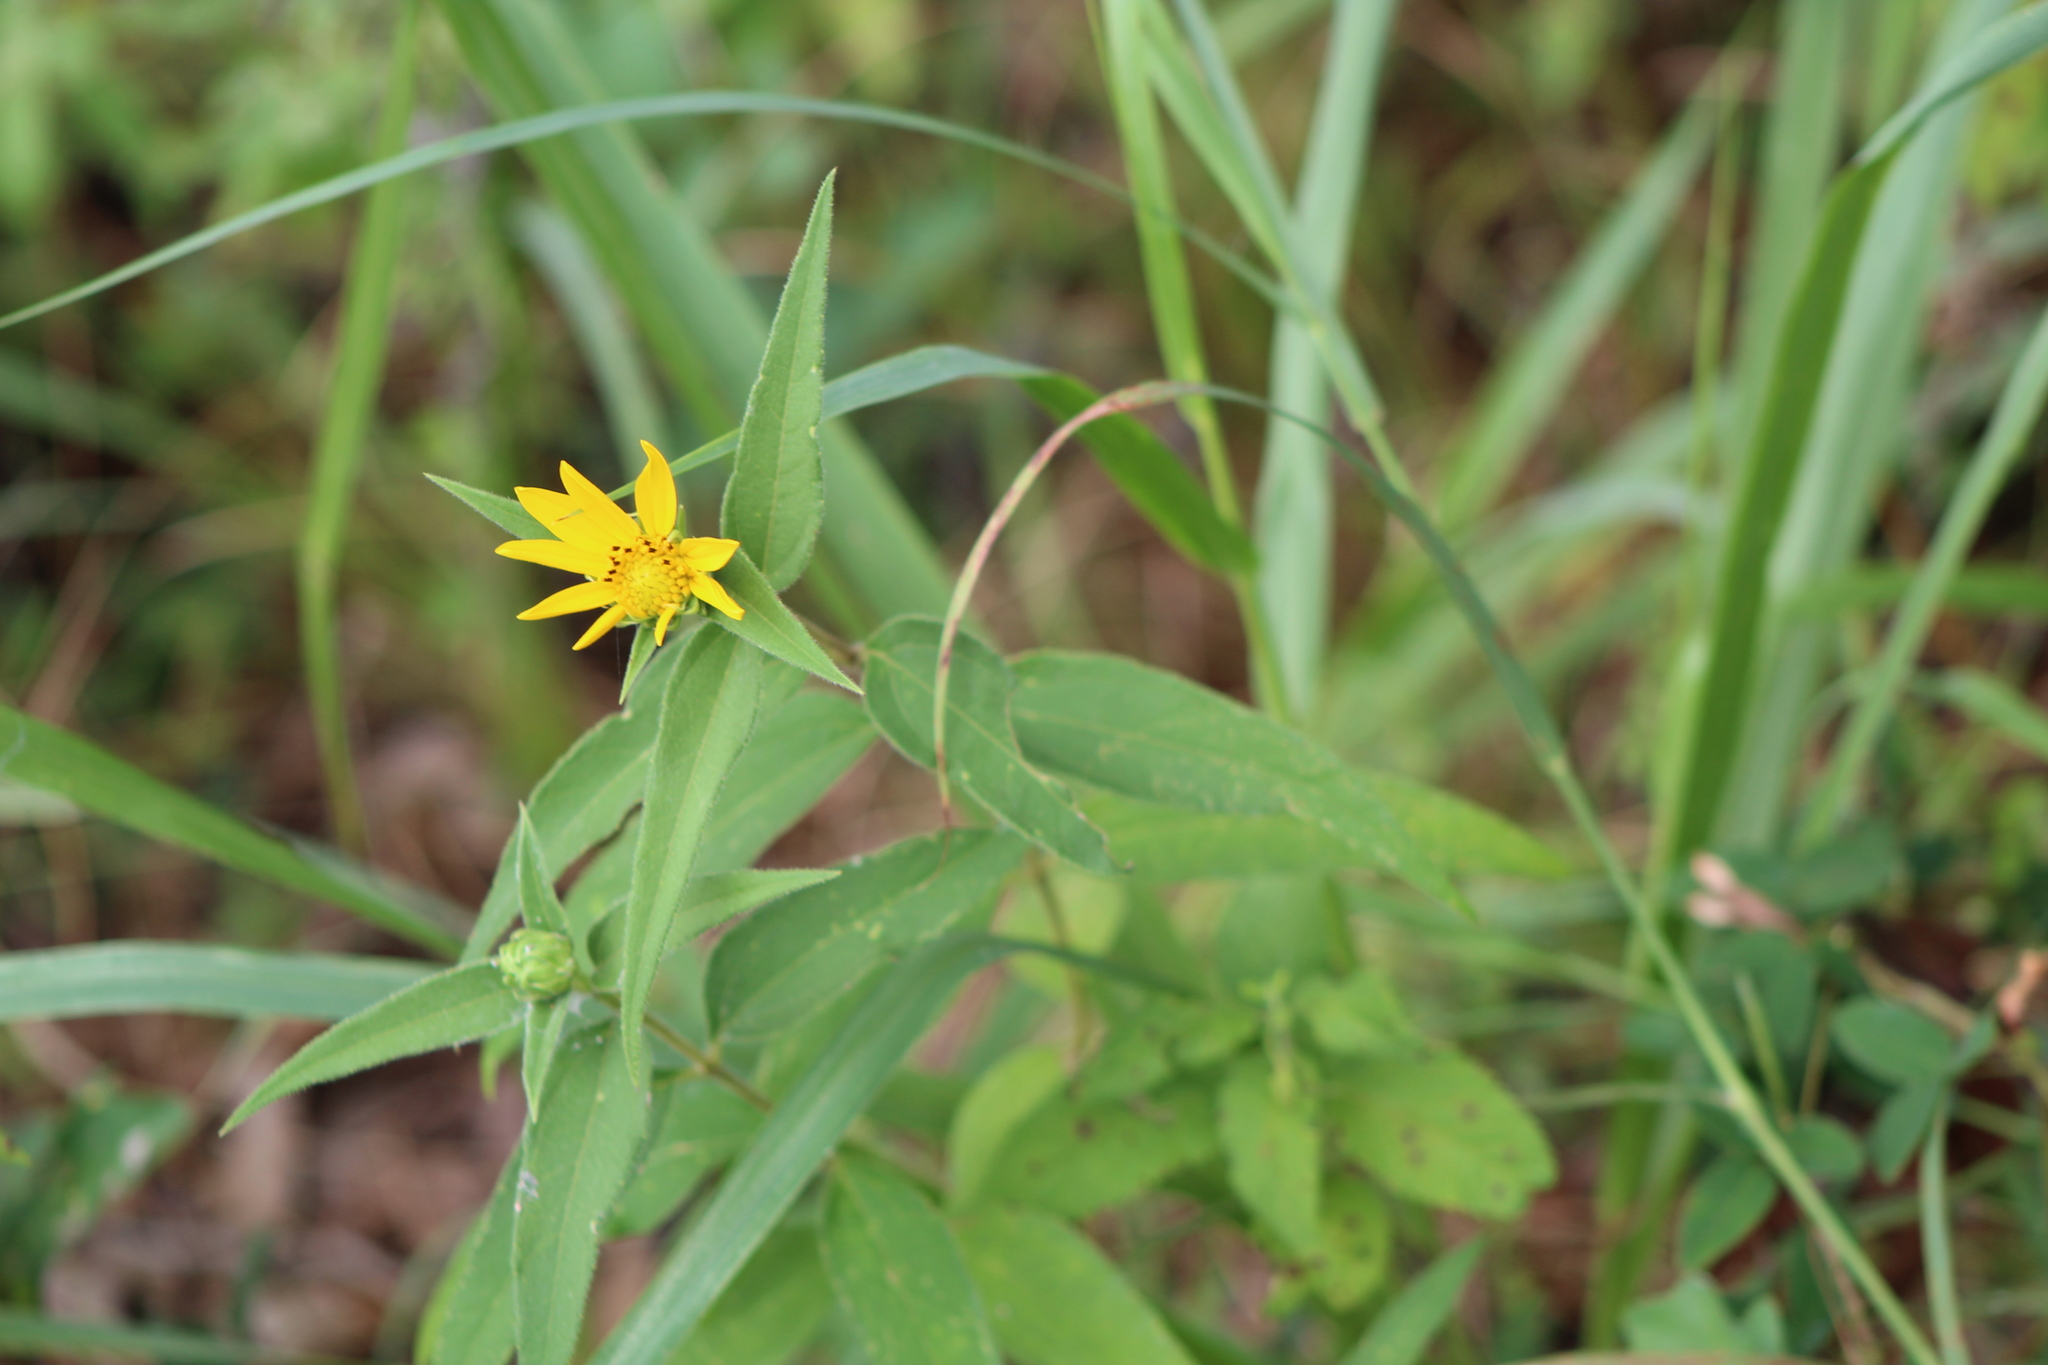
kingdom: Plantae
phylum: Tracheophyta
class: Magnoliopsida
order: Asterales
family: Asteraceae
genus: Helianthus
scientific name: Helianthus hirsutus
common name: Hairy sunflower
